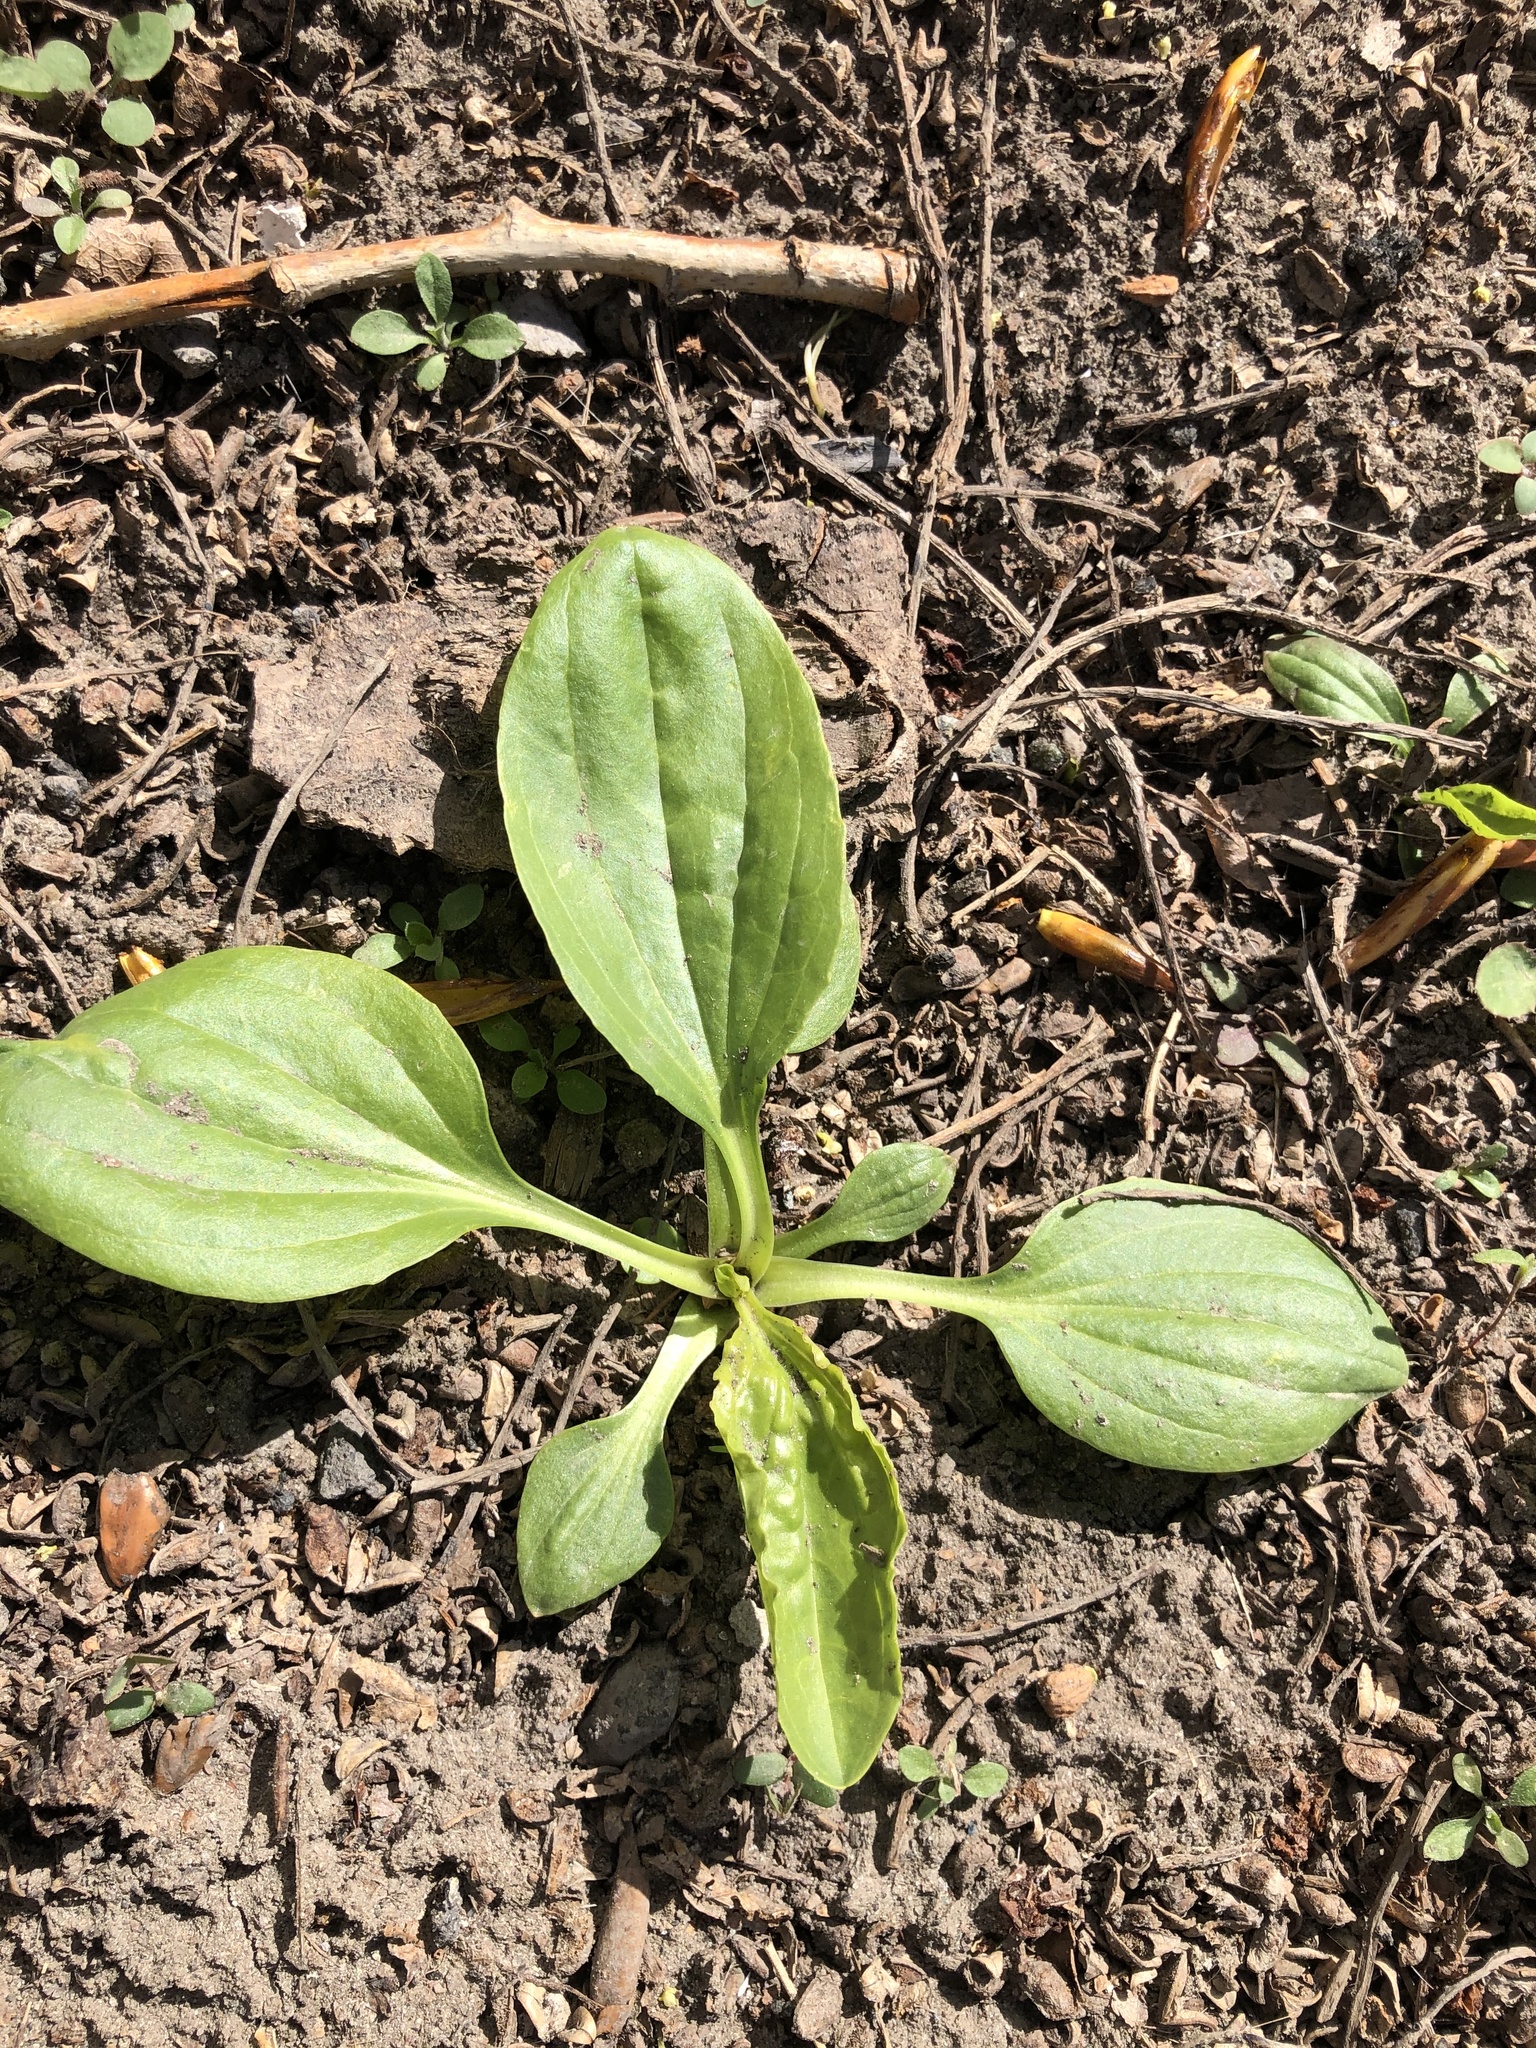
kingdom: Plantae
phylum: Tracheophyta
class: Magnoliopsida
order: Lamiales
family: Plantaginaceae
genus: Plantago
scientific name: Plantago major
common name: Common plantain
